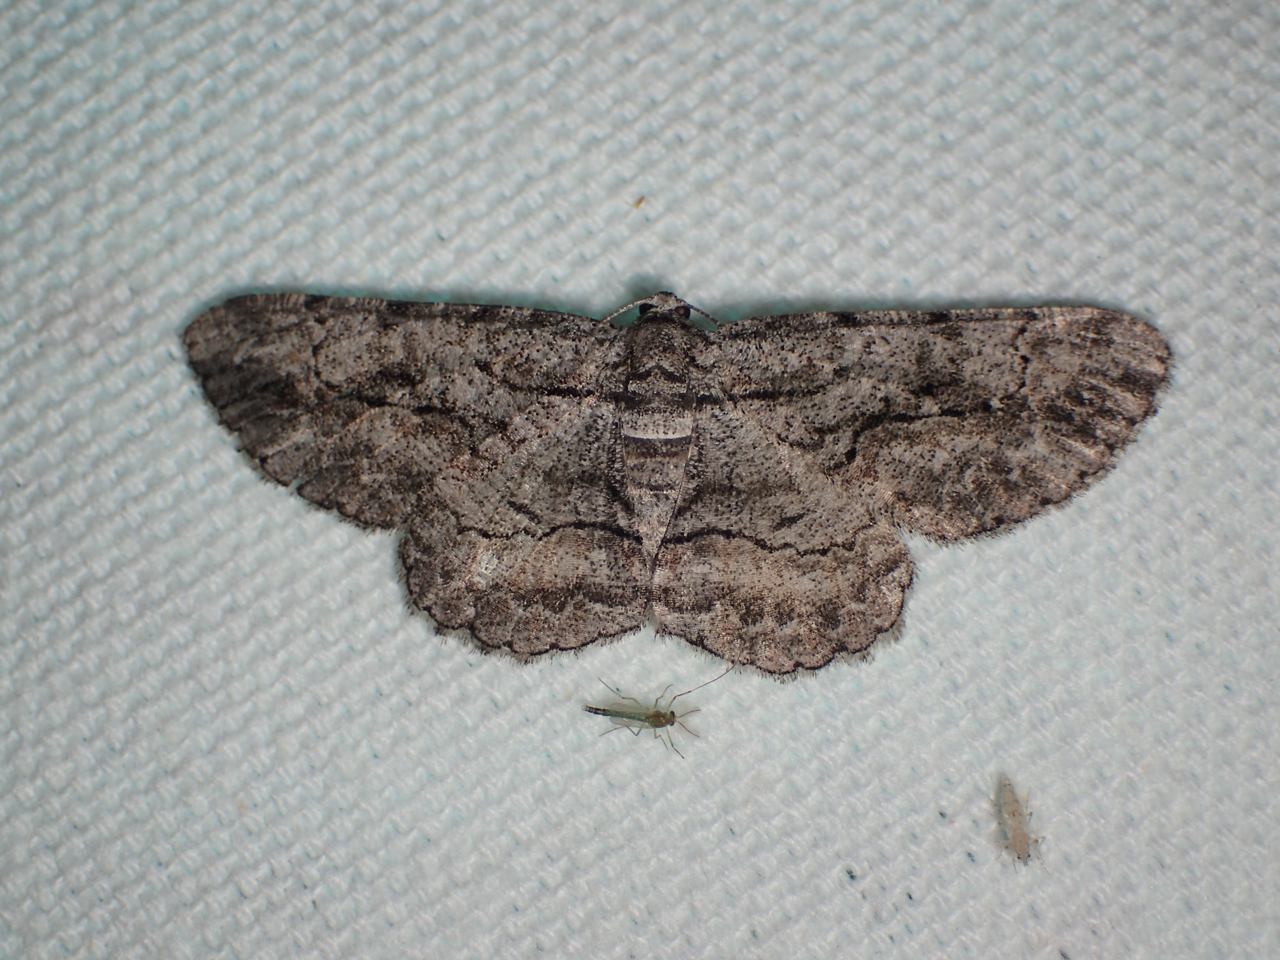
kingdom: Animalia
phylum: Arthropoda
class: Insecta
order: Lepidoptera
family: Geometridae
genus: Anavitrinella
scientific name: Anavitrinella pampinaria
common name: Common gray
